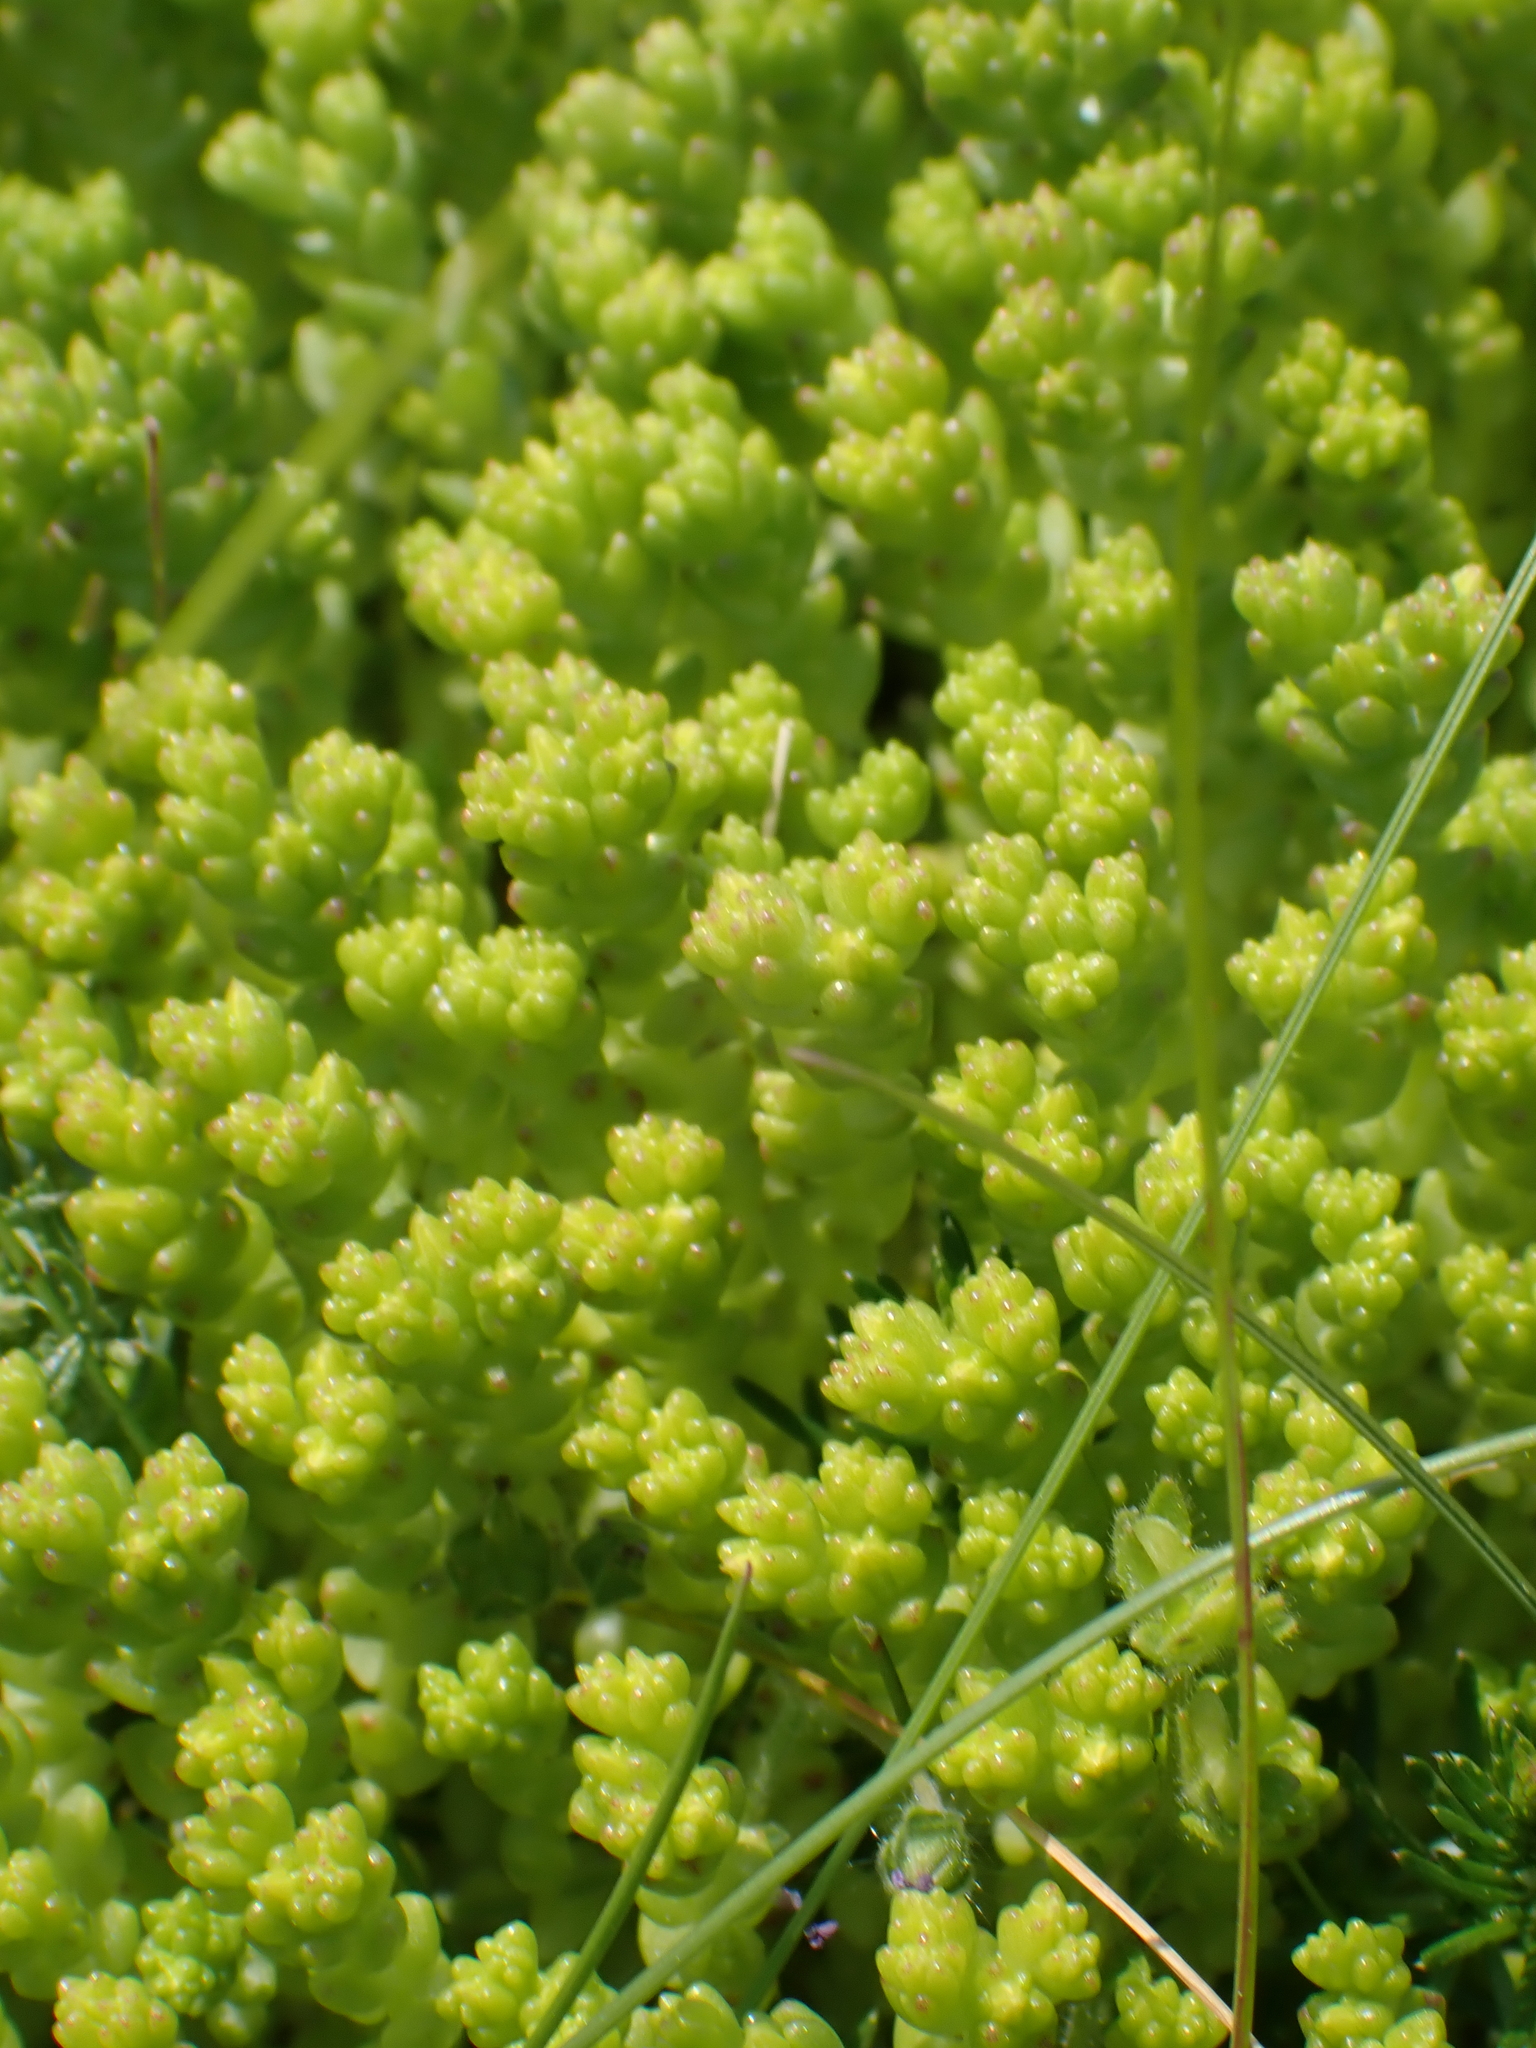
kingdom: Plantae
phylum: Tracheophyta
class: Magnoliopsida
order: Saxifragales
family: Crassulaceae
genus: Sedum
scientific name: Sedum acre
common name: Biting stonecrop
